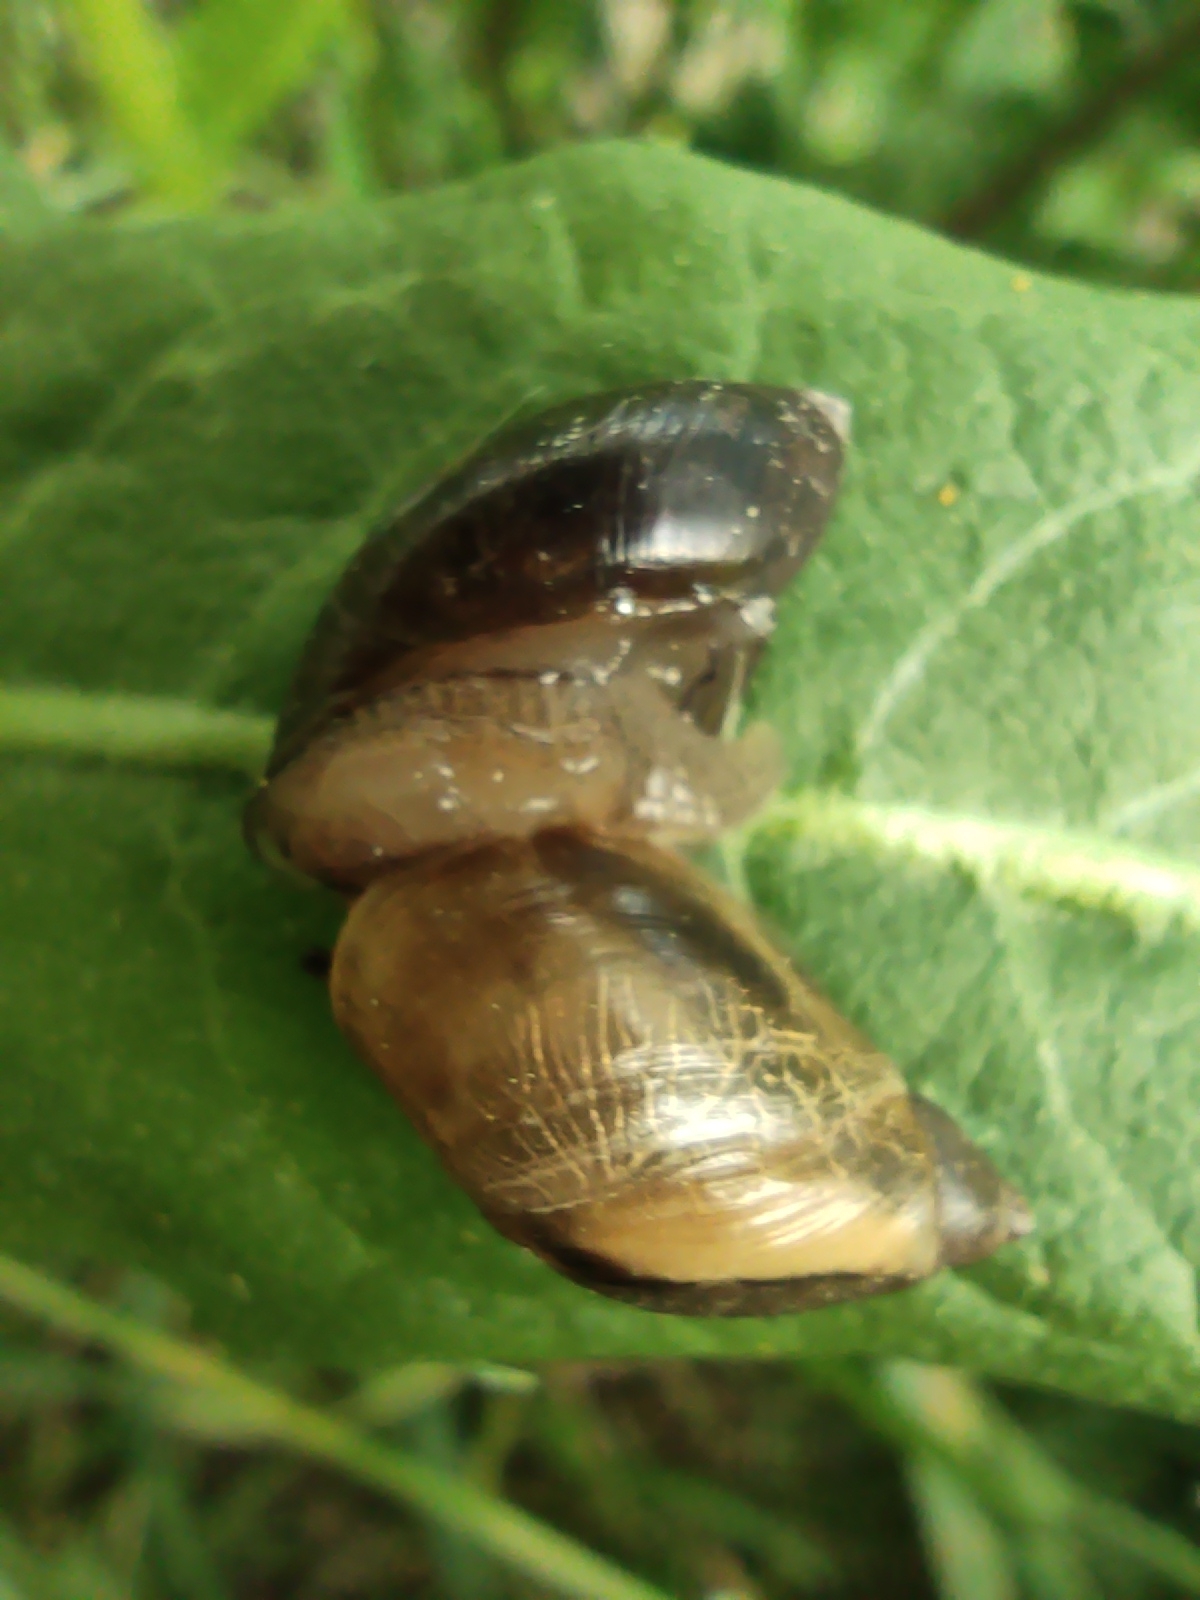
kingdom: Animalia
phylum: Mollusca
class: Gastropoda
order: Stylommatophora
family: Succineidae
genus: Succinea
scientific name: Succinea putris
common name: European ambersnail
